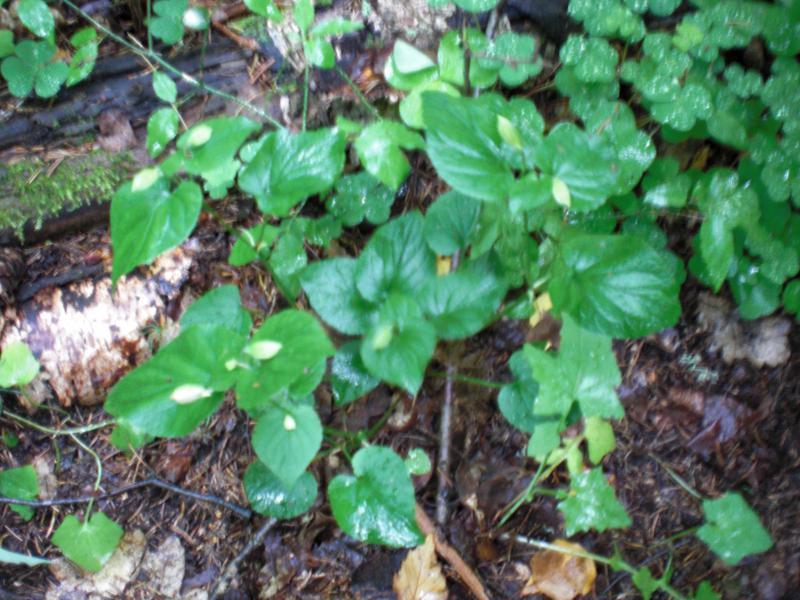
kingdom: Plantae
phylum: Tracheophyta
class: Magnoliopsida
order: Malpighiales
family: Violaceae
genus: Viola
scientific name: Viola mirabilis
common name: Wonder violet
